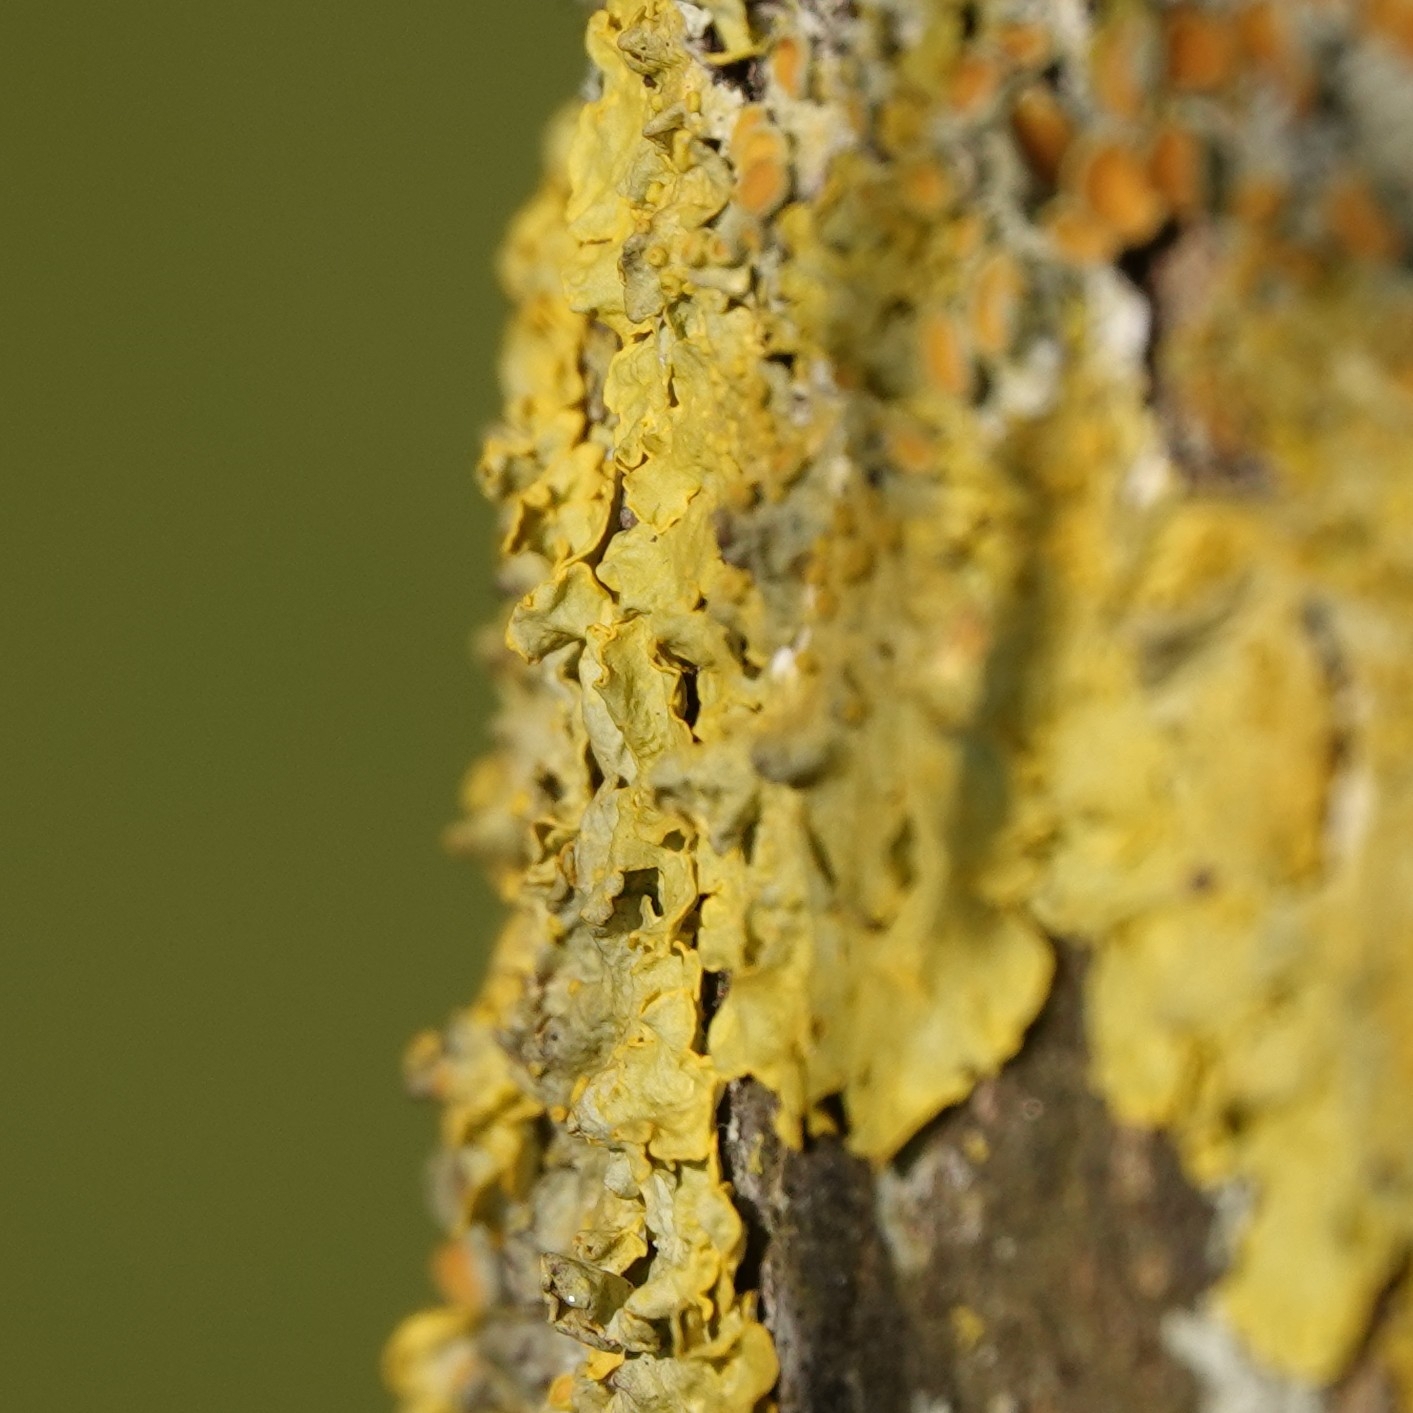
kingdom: Fungi
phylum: Ascomycota
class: Lecanoromycetes
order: Teloschistales
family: Teloschistaceae
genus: Xanthoria
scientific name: Xanthoria parietina
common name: Common orange lichen
